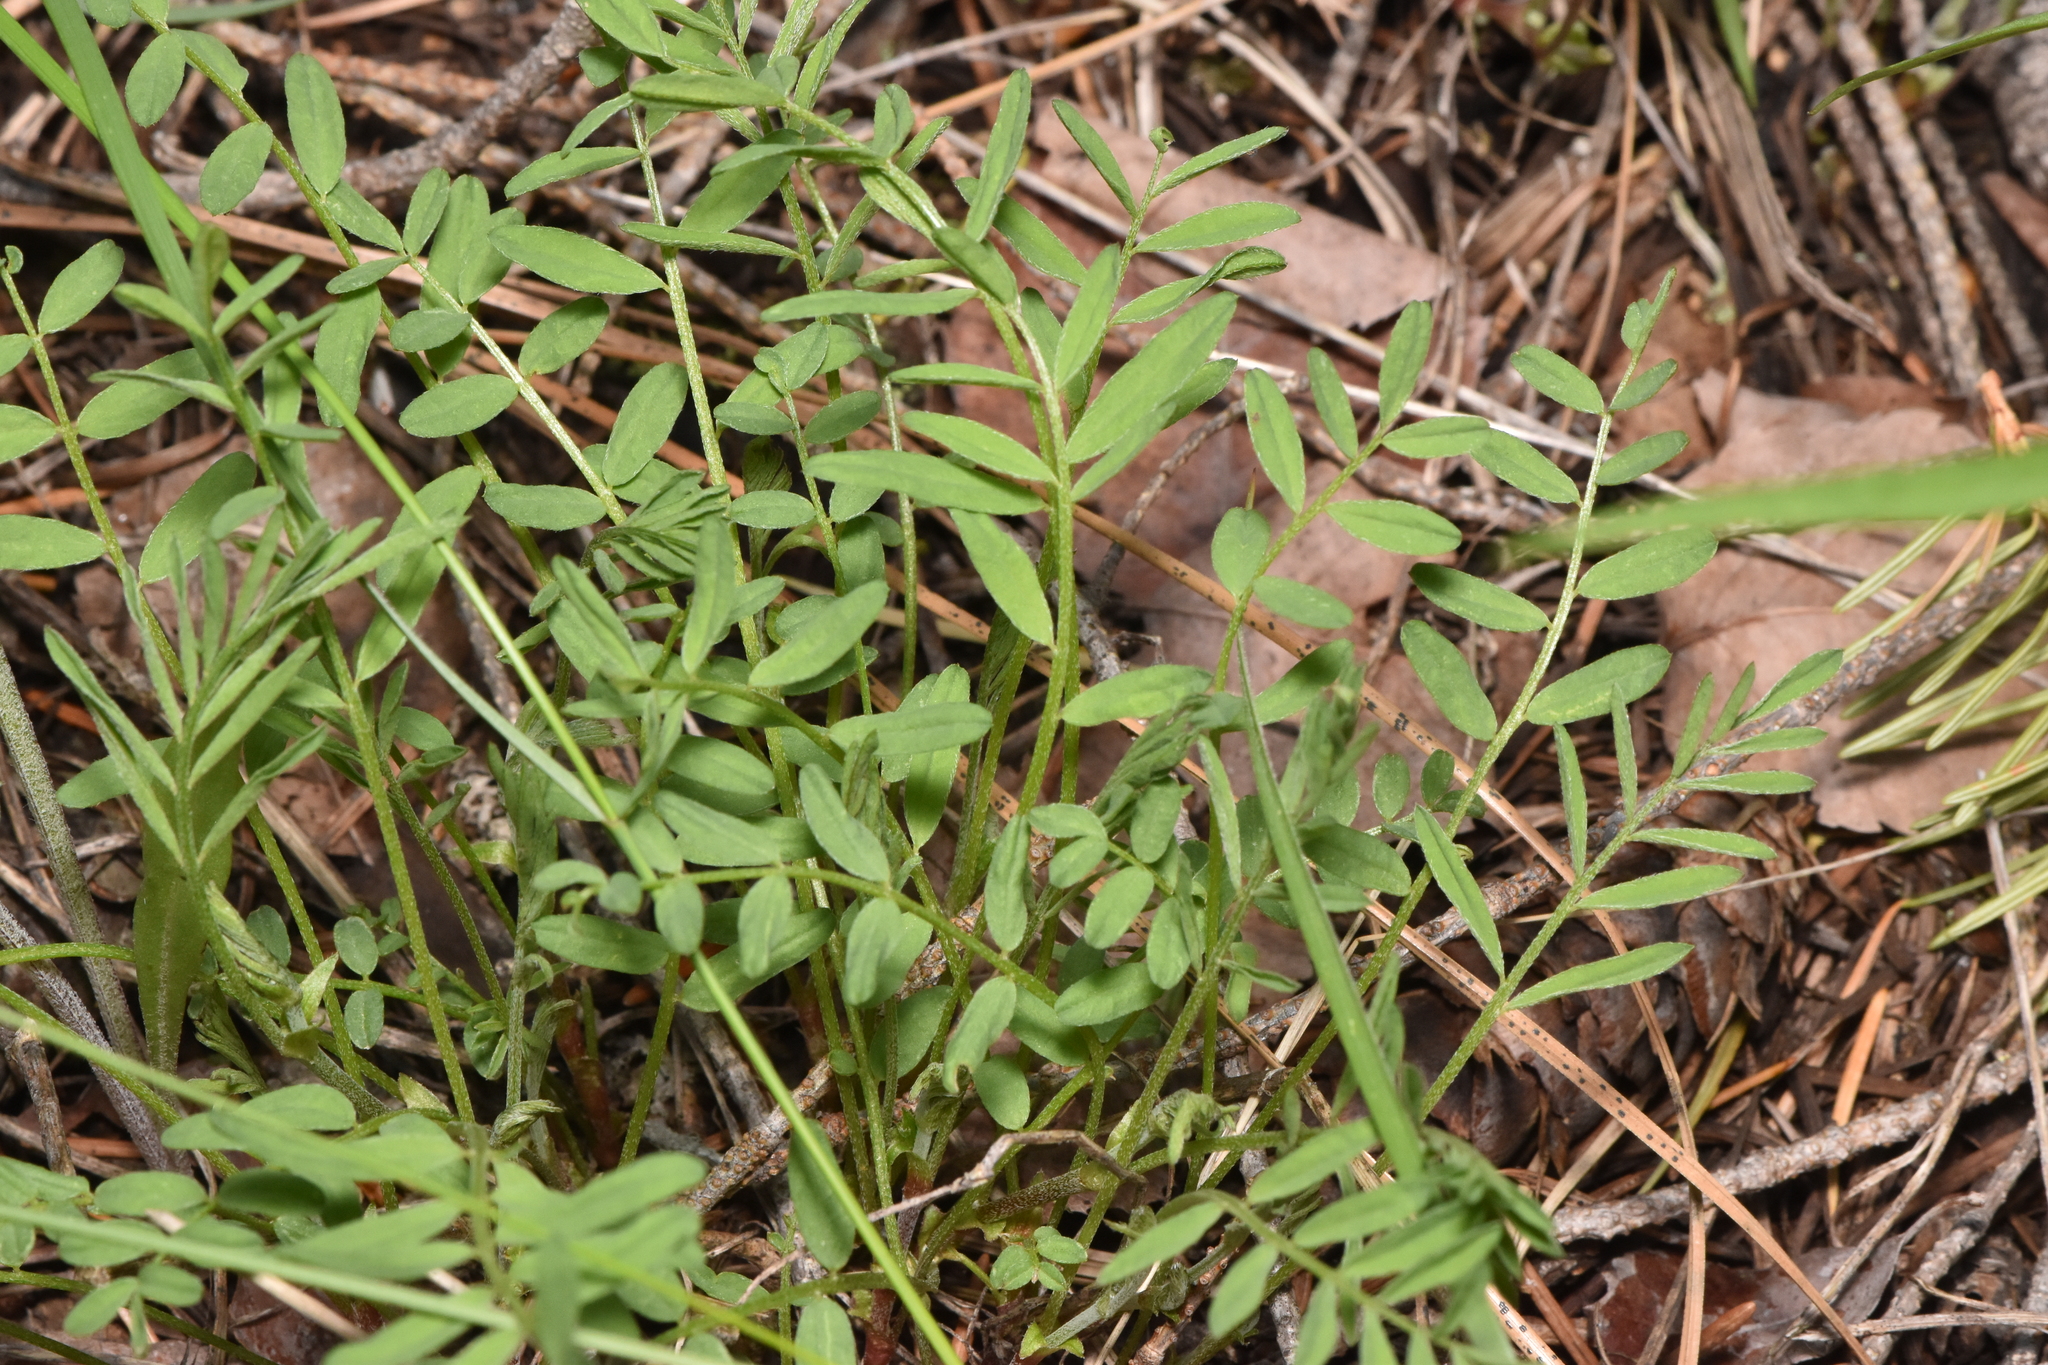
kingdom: Plantae
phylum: Tracheophyta
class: Magnoliopsida
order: Fabales
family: Fabaceae
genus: Astragalus
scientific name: Astragalus miser
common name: Timber milkvetch
